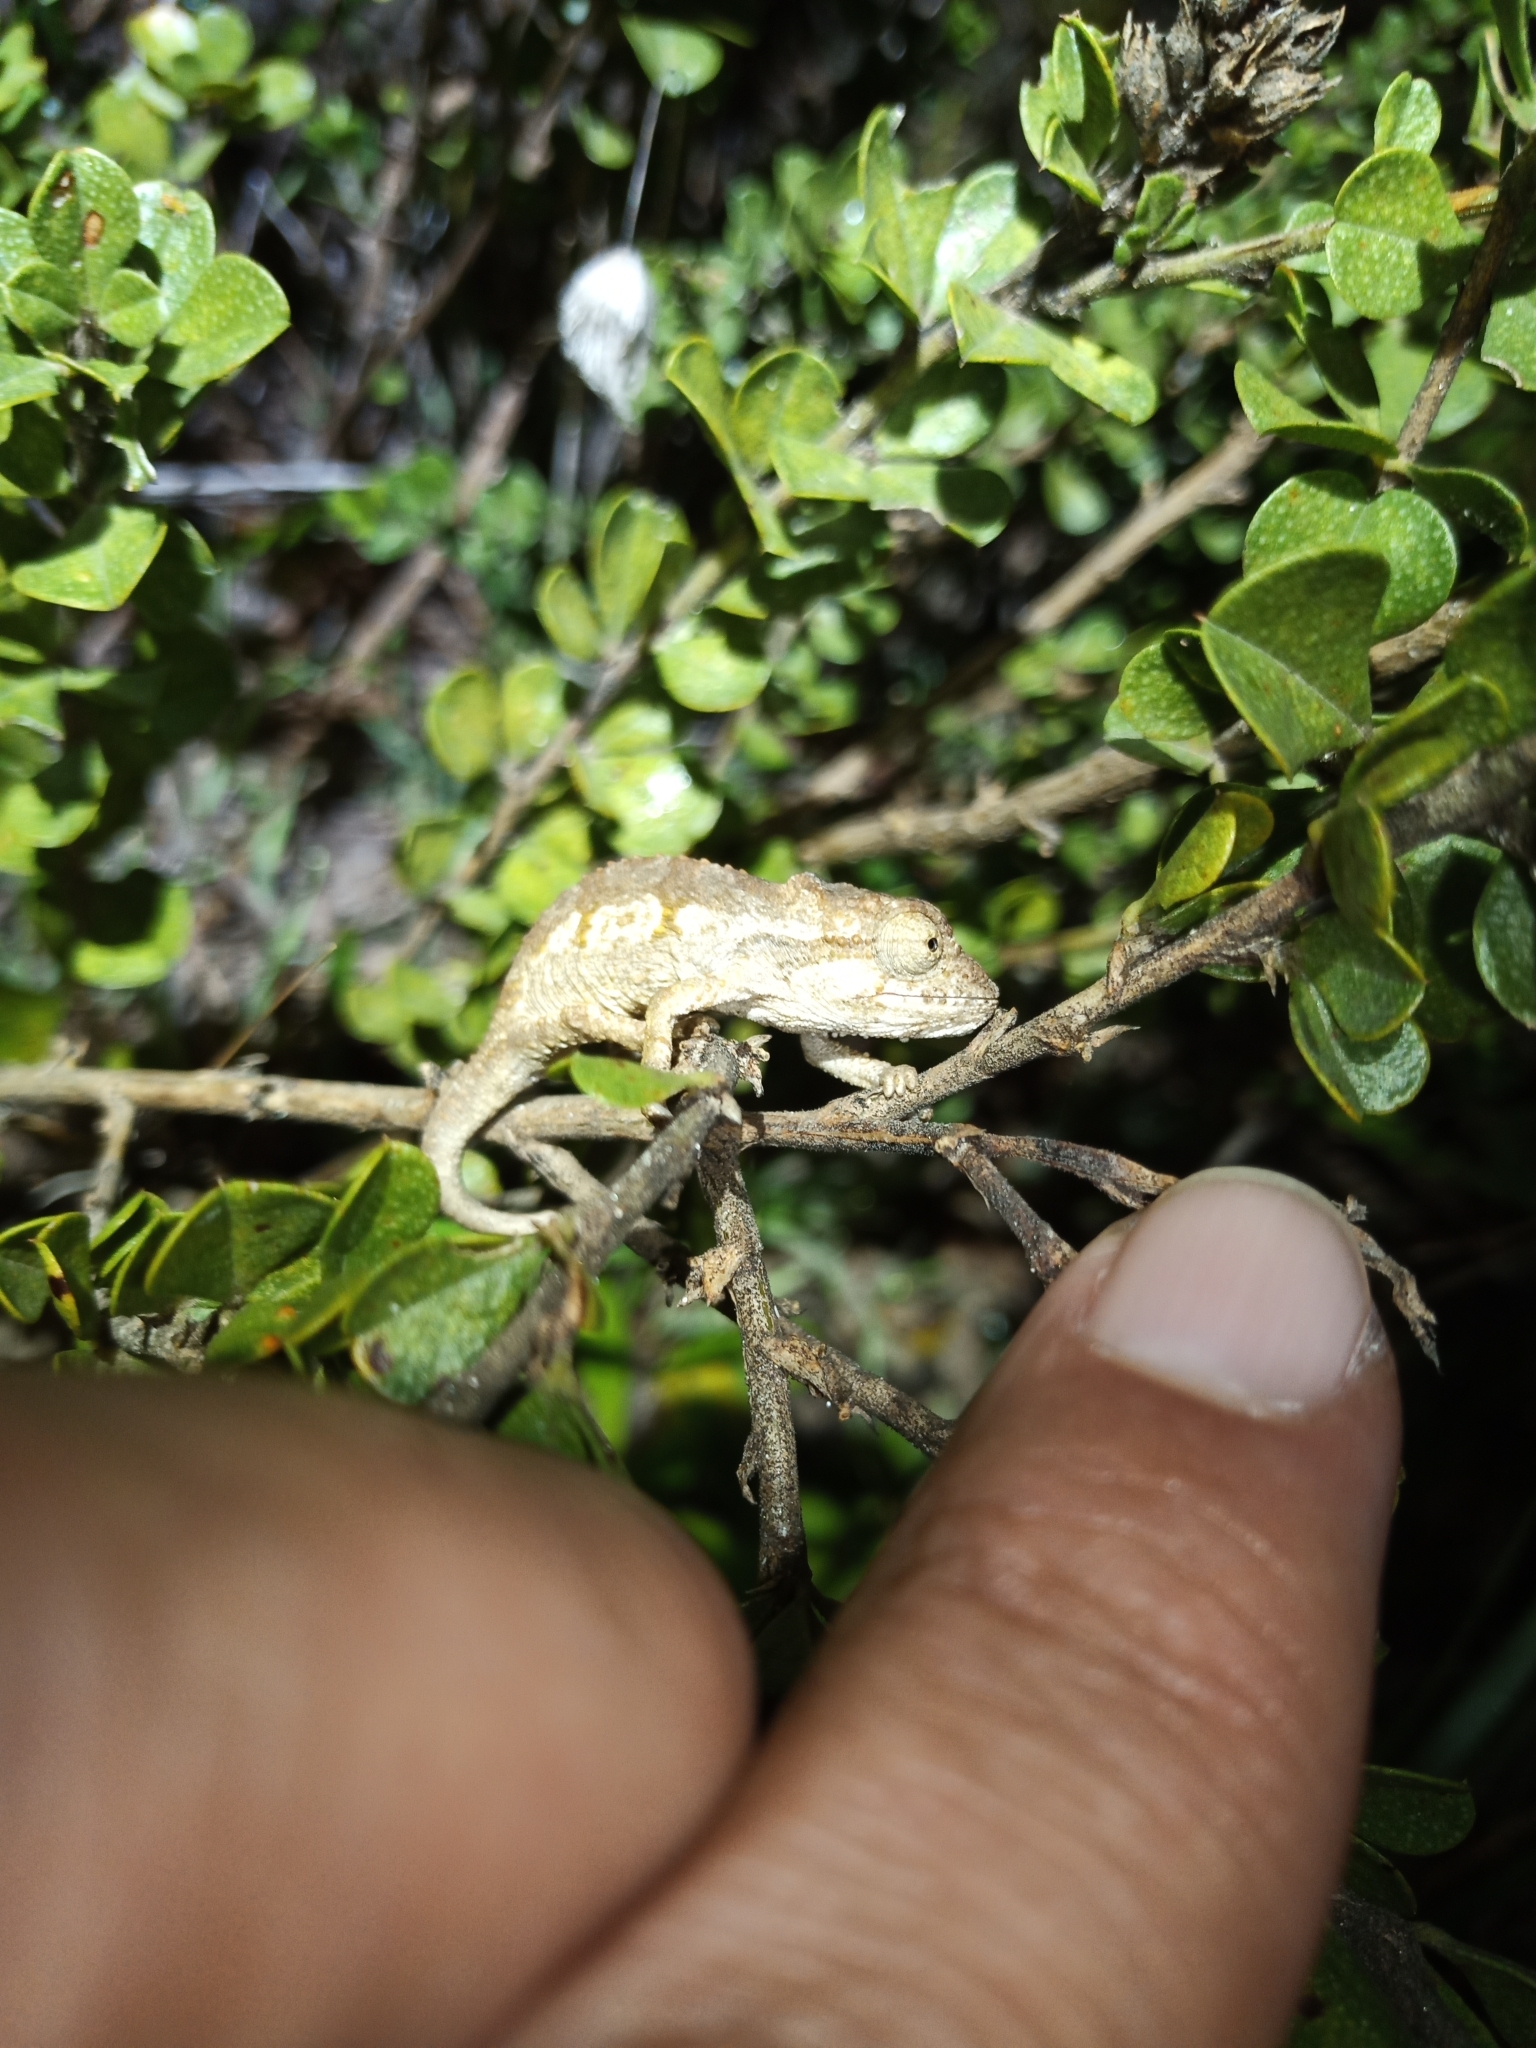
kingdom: Animalia
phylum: Chordata
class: Squamata
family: Chamaeleonidae
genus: Bradypodion
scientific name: Bradypodion ventrale
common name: Eastern cape dwarf chameleon
